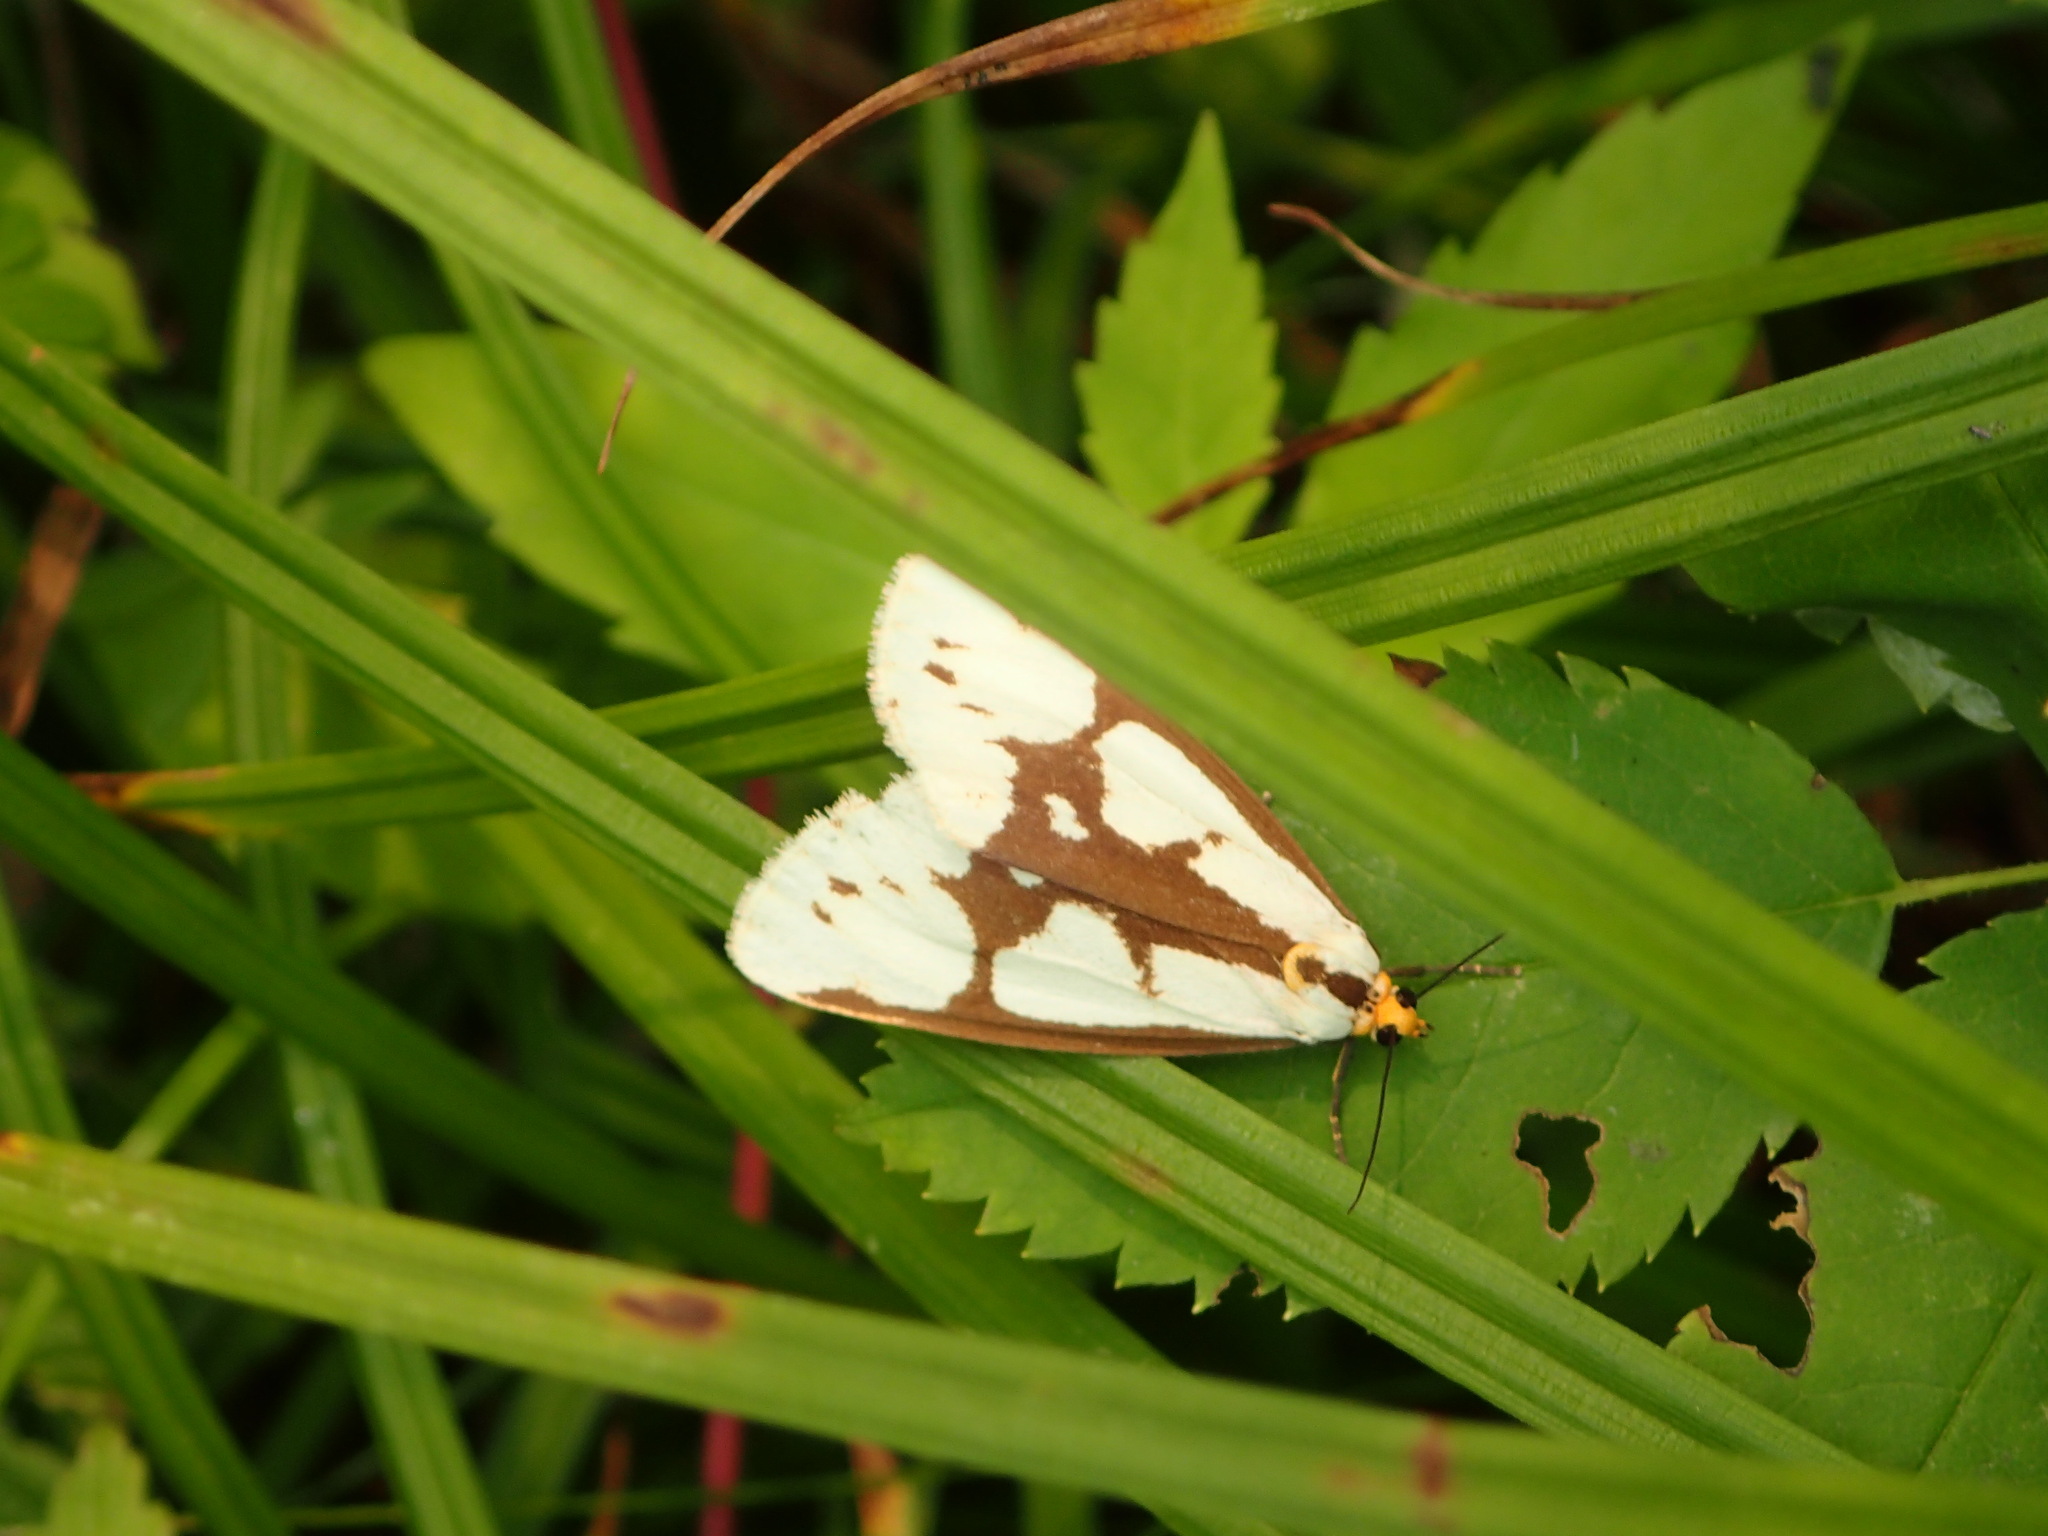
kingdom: Animalia
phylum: Arthropoda
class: Insecta
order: Lepidoptera
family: Erebidae
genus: Haploa
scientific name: Haploa confusa
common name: Confused haploa moth
